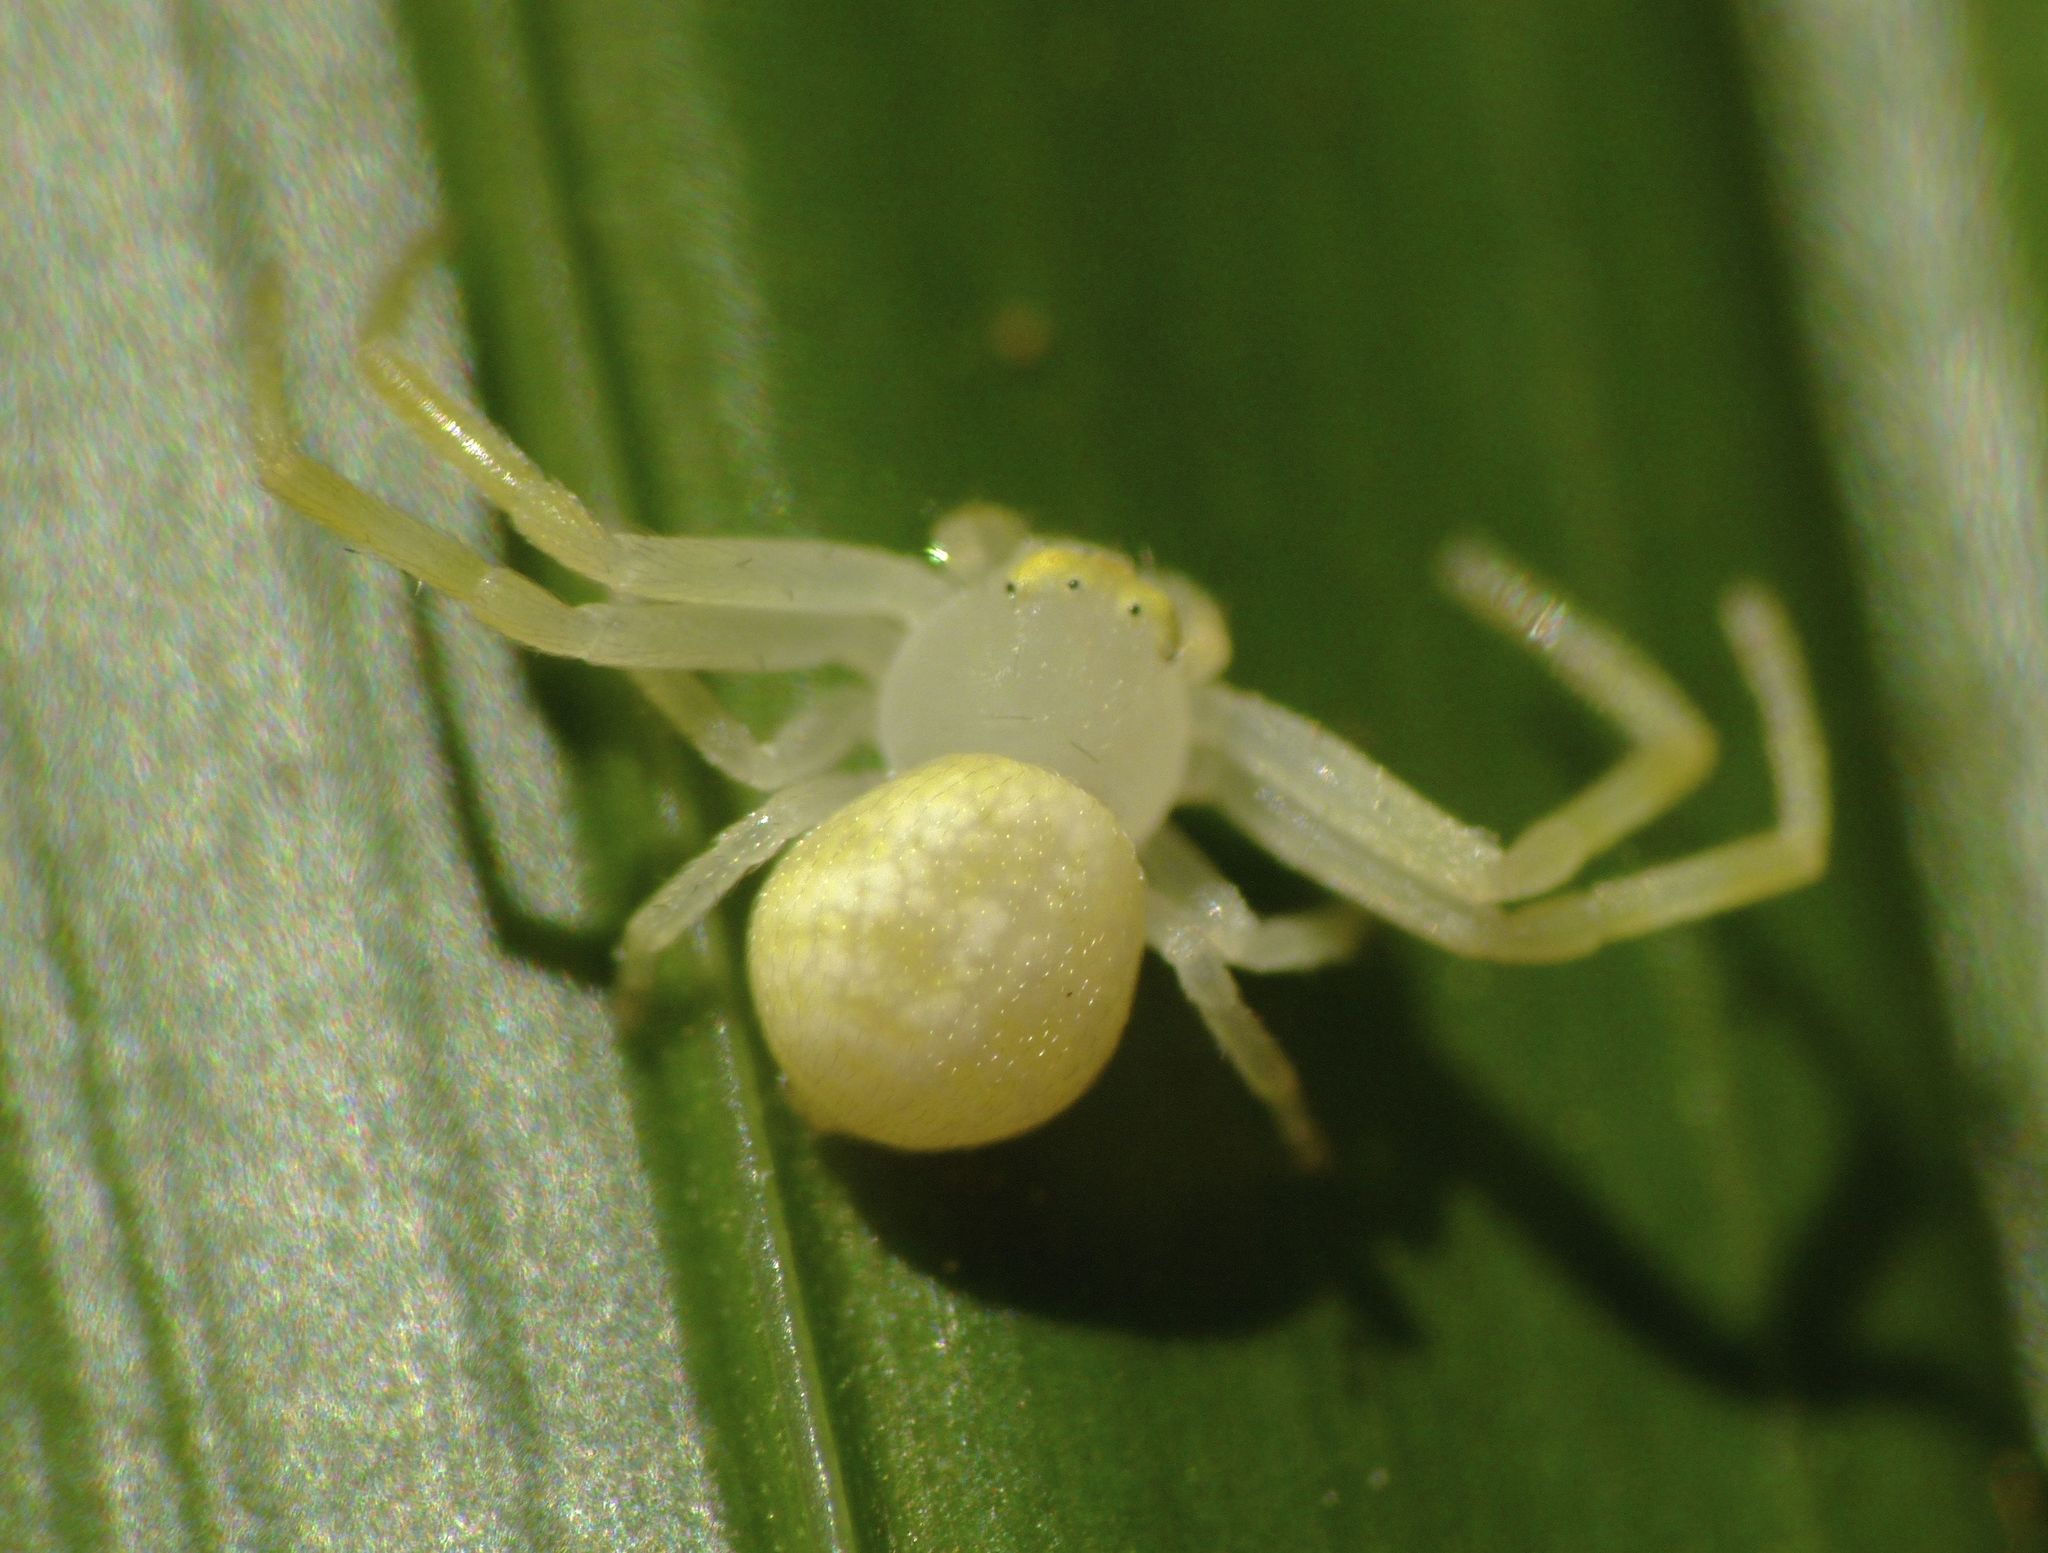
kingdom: Animalia
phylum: Arthropoda
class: Arachnida
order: Araneae
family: Thomisidae
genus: Boomerangiana
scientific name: Boomerangiana dimidiata
